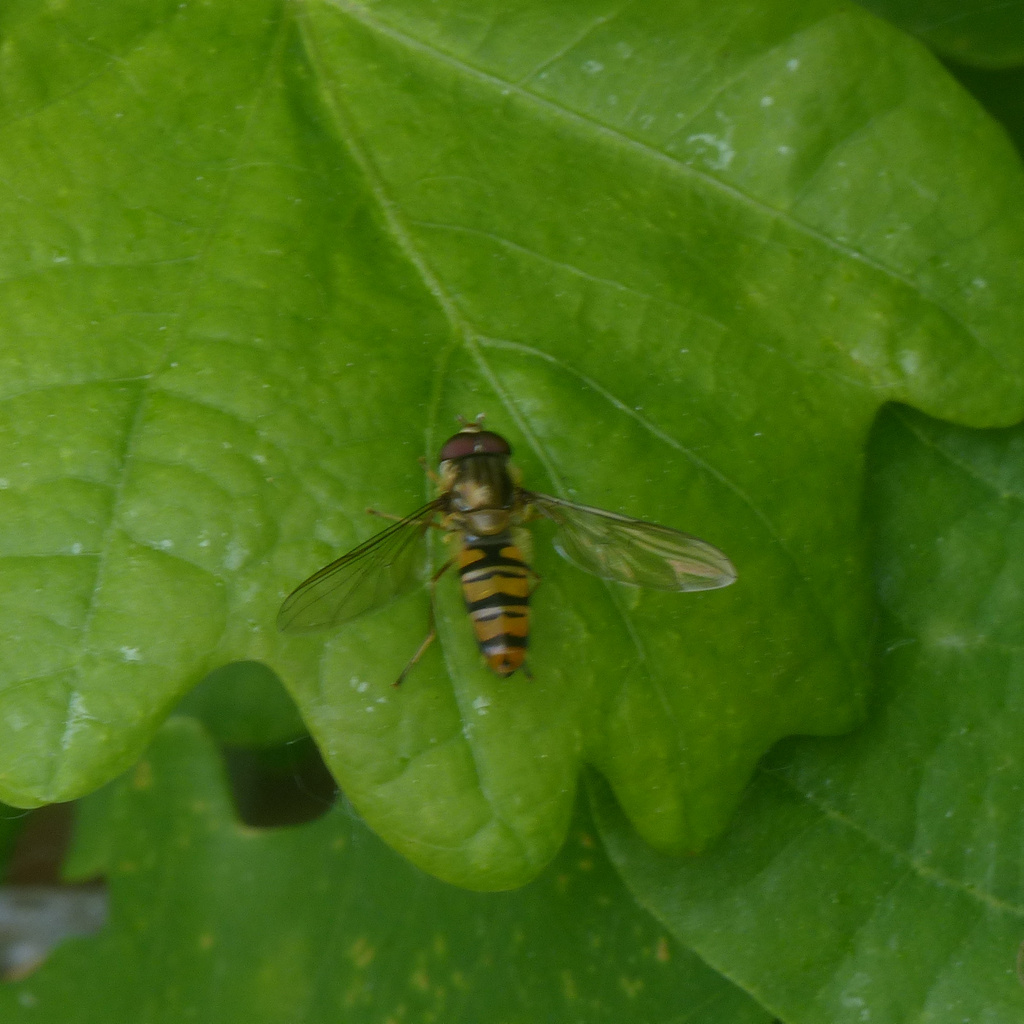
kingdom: Animalia
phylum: Arthropoda
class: Insecta
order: Diptera
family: Syrphidae
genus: Episyrphus
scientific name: Episyrphus balteatus
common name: Marmalade hoverfly
